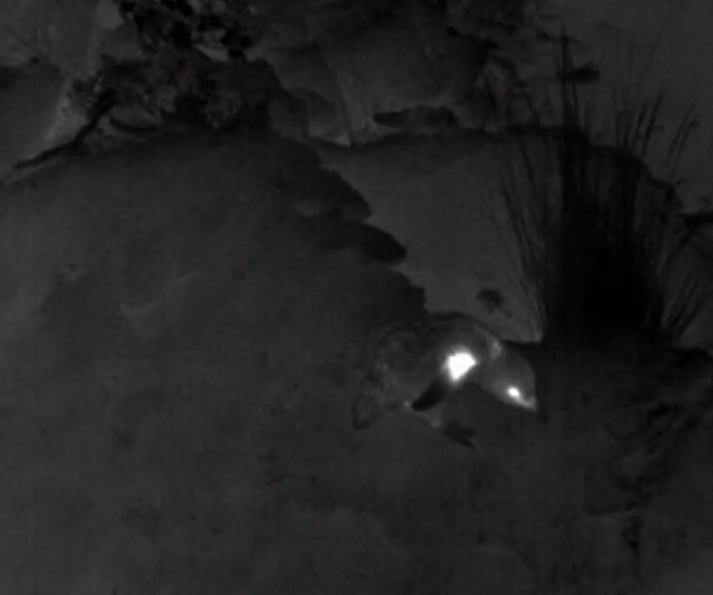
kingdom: Animalia
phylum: Chordata
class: Aves
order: Sphenisciformes
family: Spheniscidae
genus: Eudyptula
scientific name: Eudyptula minor
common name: Little penguin
